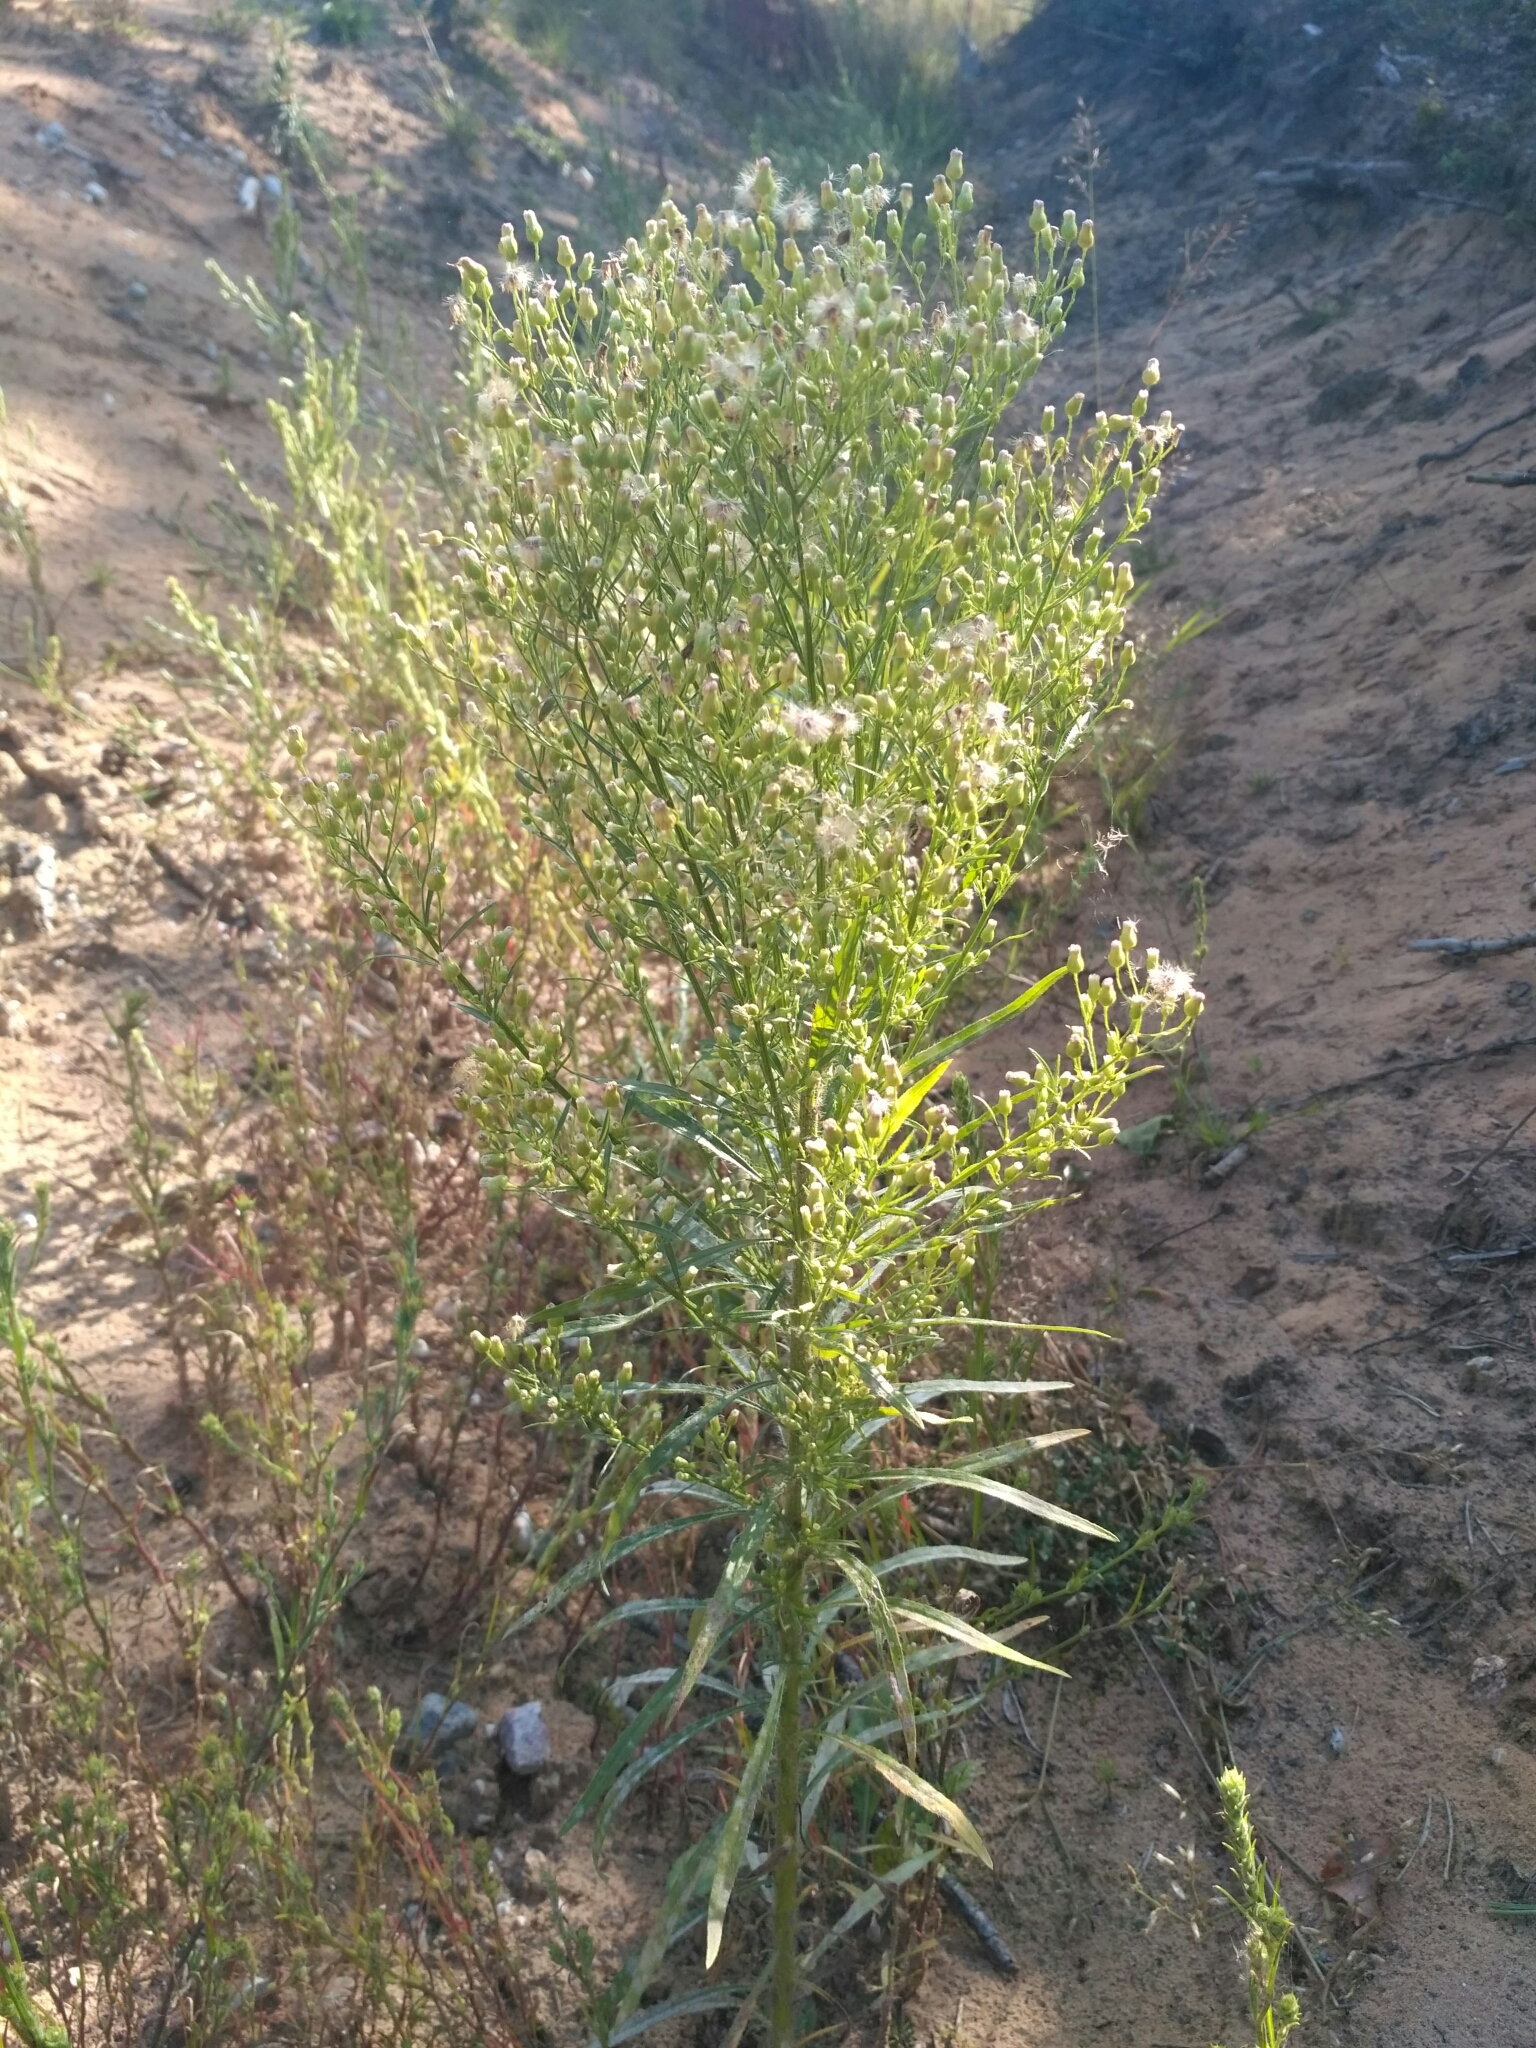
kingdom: Plantae
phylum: Tracheophyta
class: Magnoliopsida
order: Asterales
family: Asteraceae
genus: Erigeron
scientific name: Erigeron canadensis
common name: Canadian fleabane
